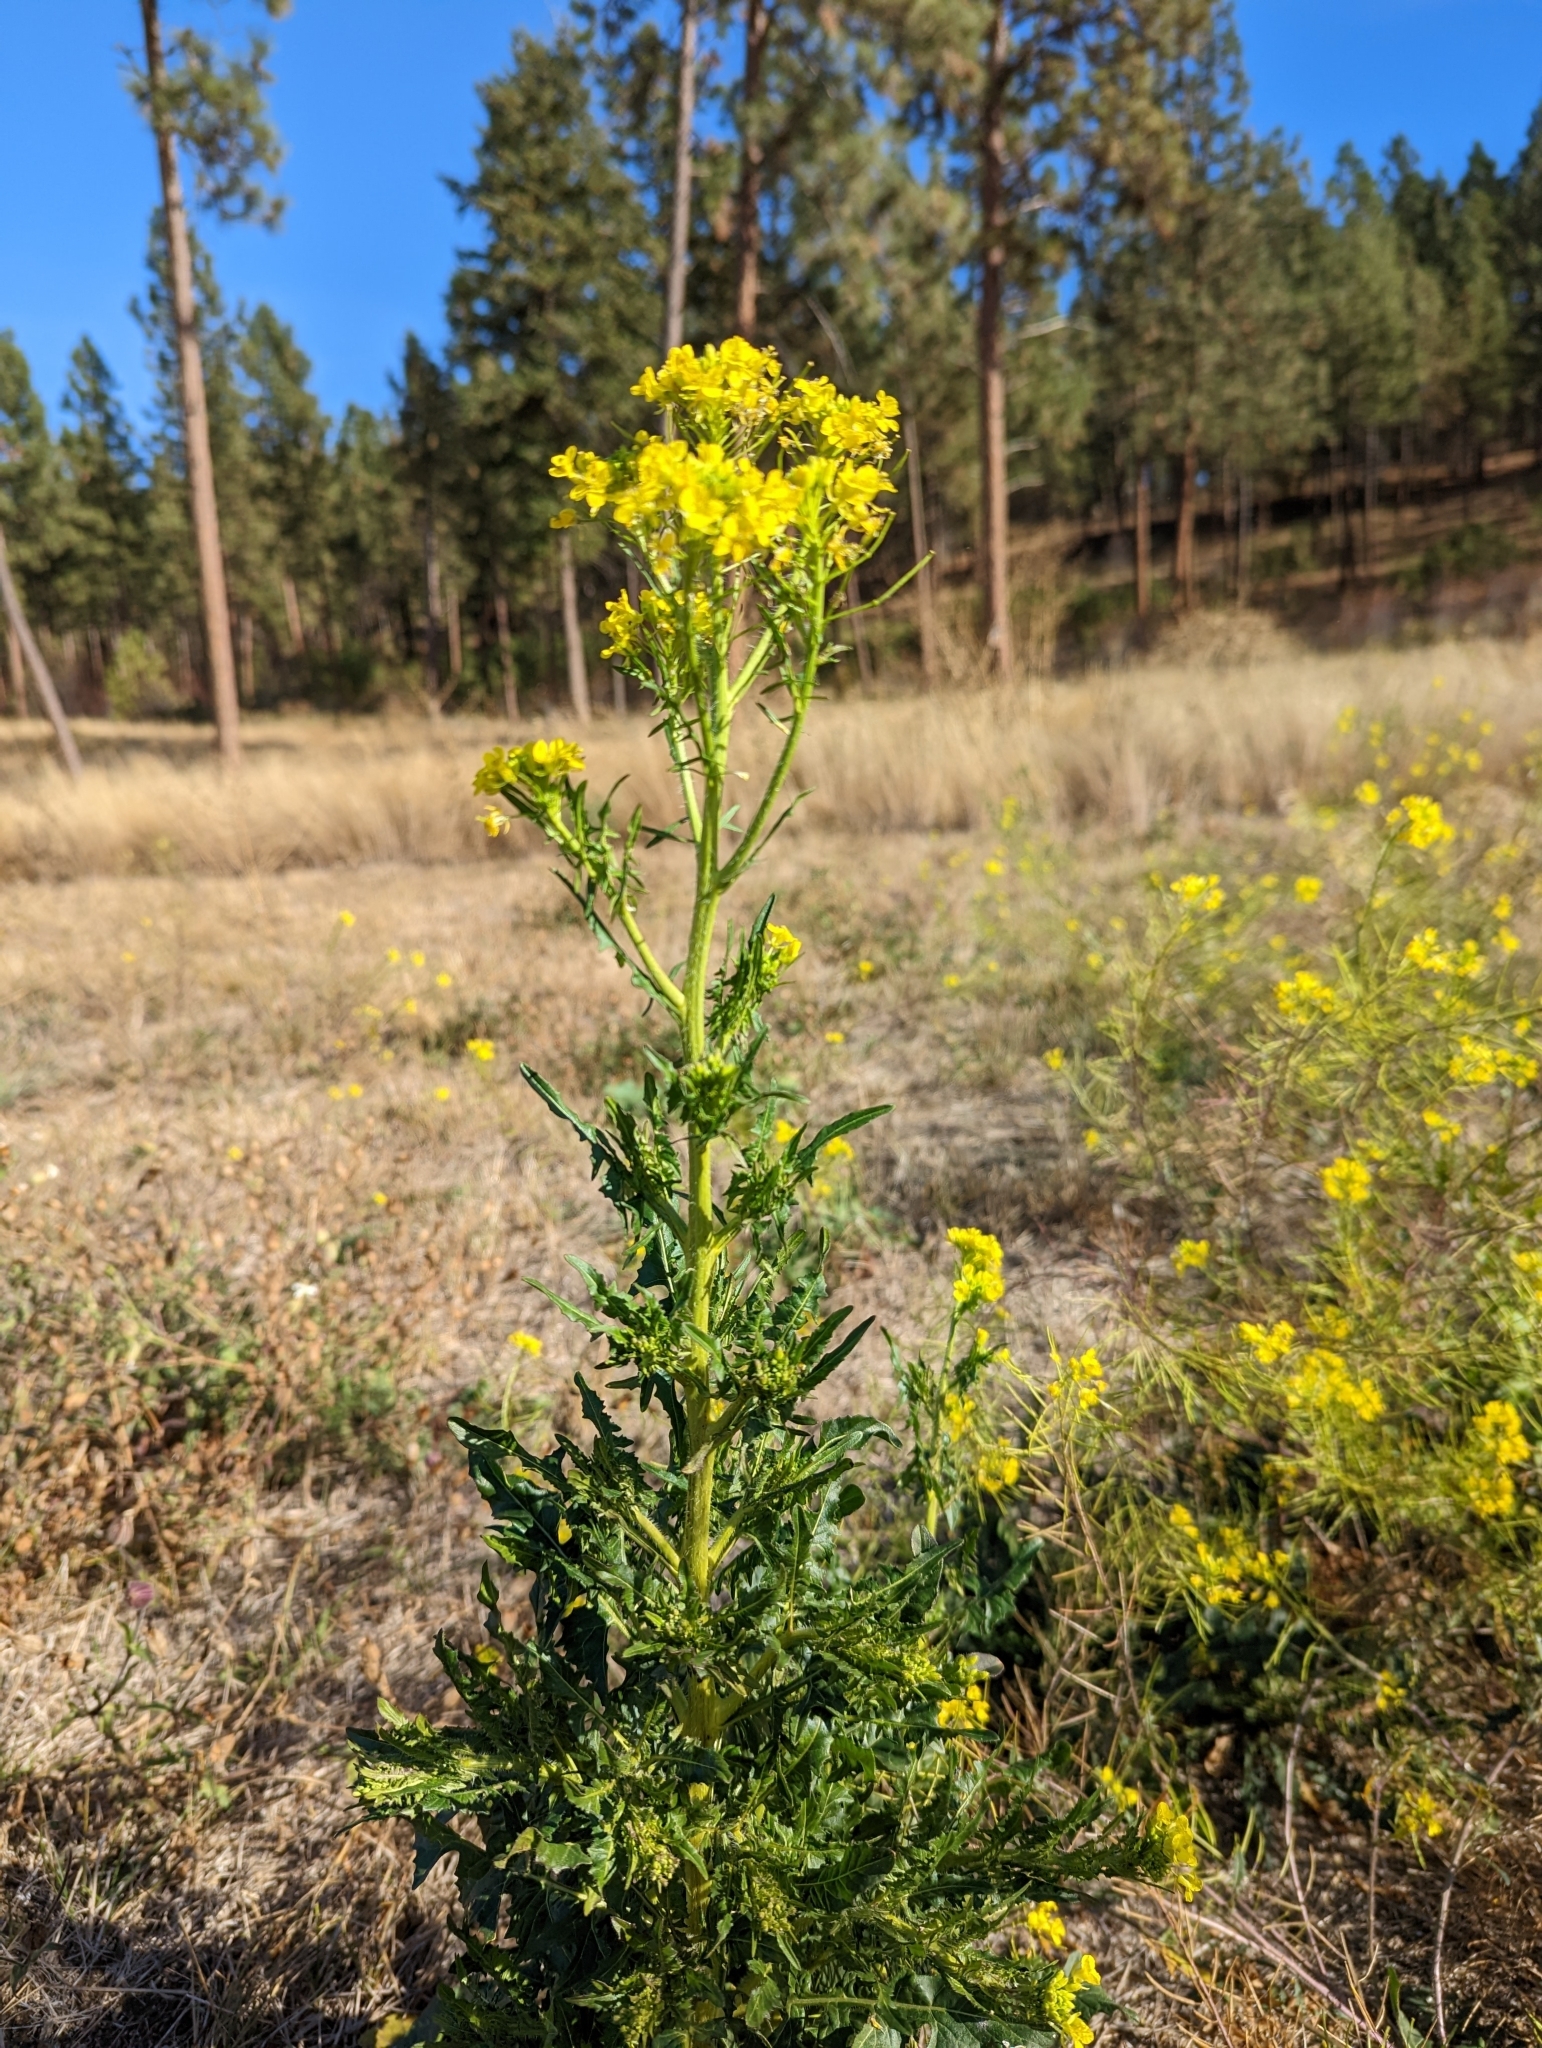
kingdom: Plantae
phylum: Tracheophyta
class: Magnoliopsida
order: Brassicales
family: Brassicaceae
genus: Sisymbrium
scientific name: Sisymbrium loeselii
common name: False london-rocket
